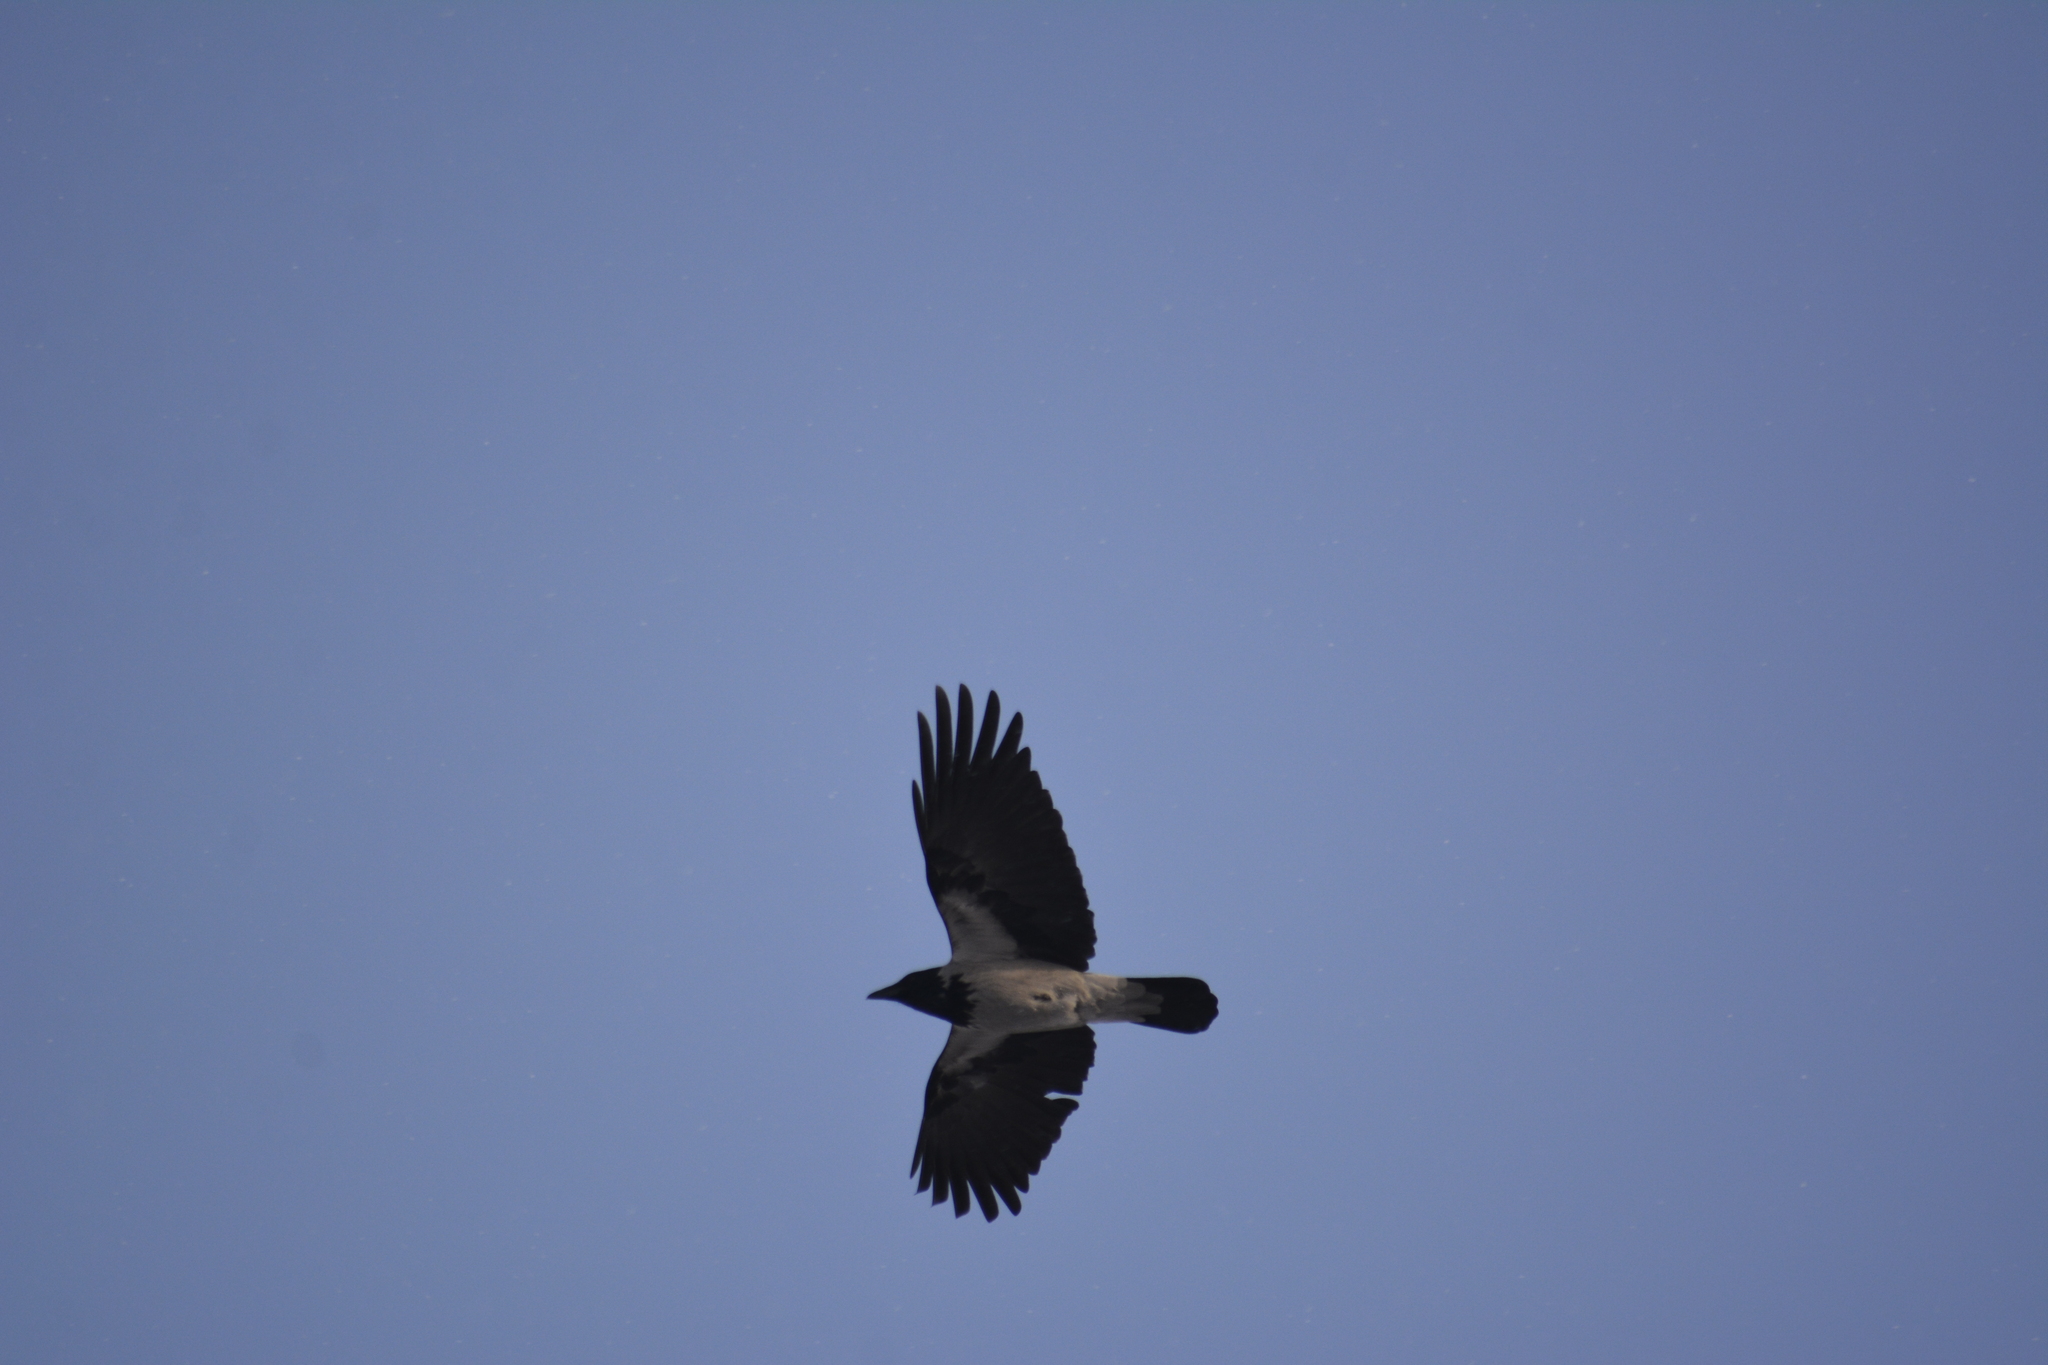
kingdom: Animalia
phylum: Chordata
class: Aves
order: Passeriformes
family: Corvidae
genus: Corvus
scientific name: Corvus cornix
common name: Hooded crow
